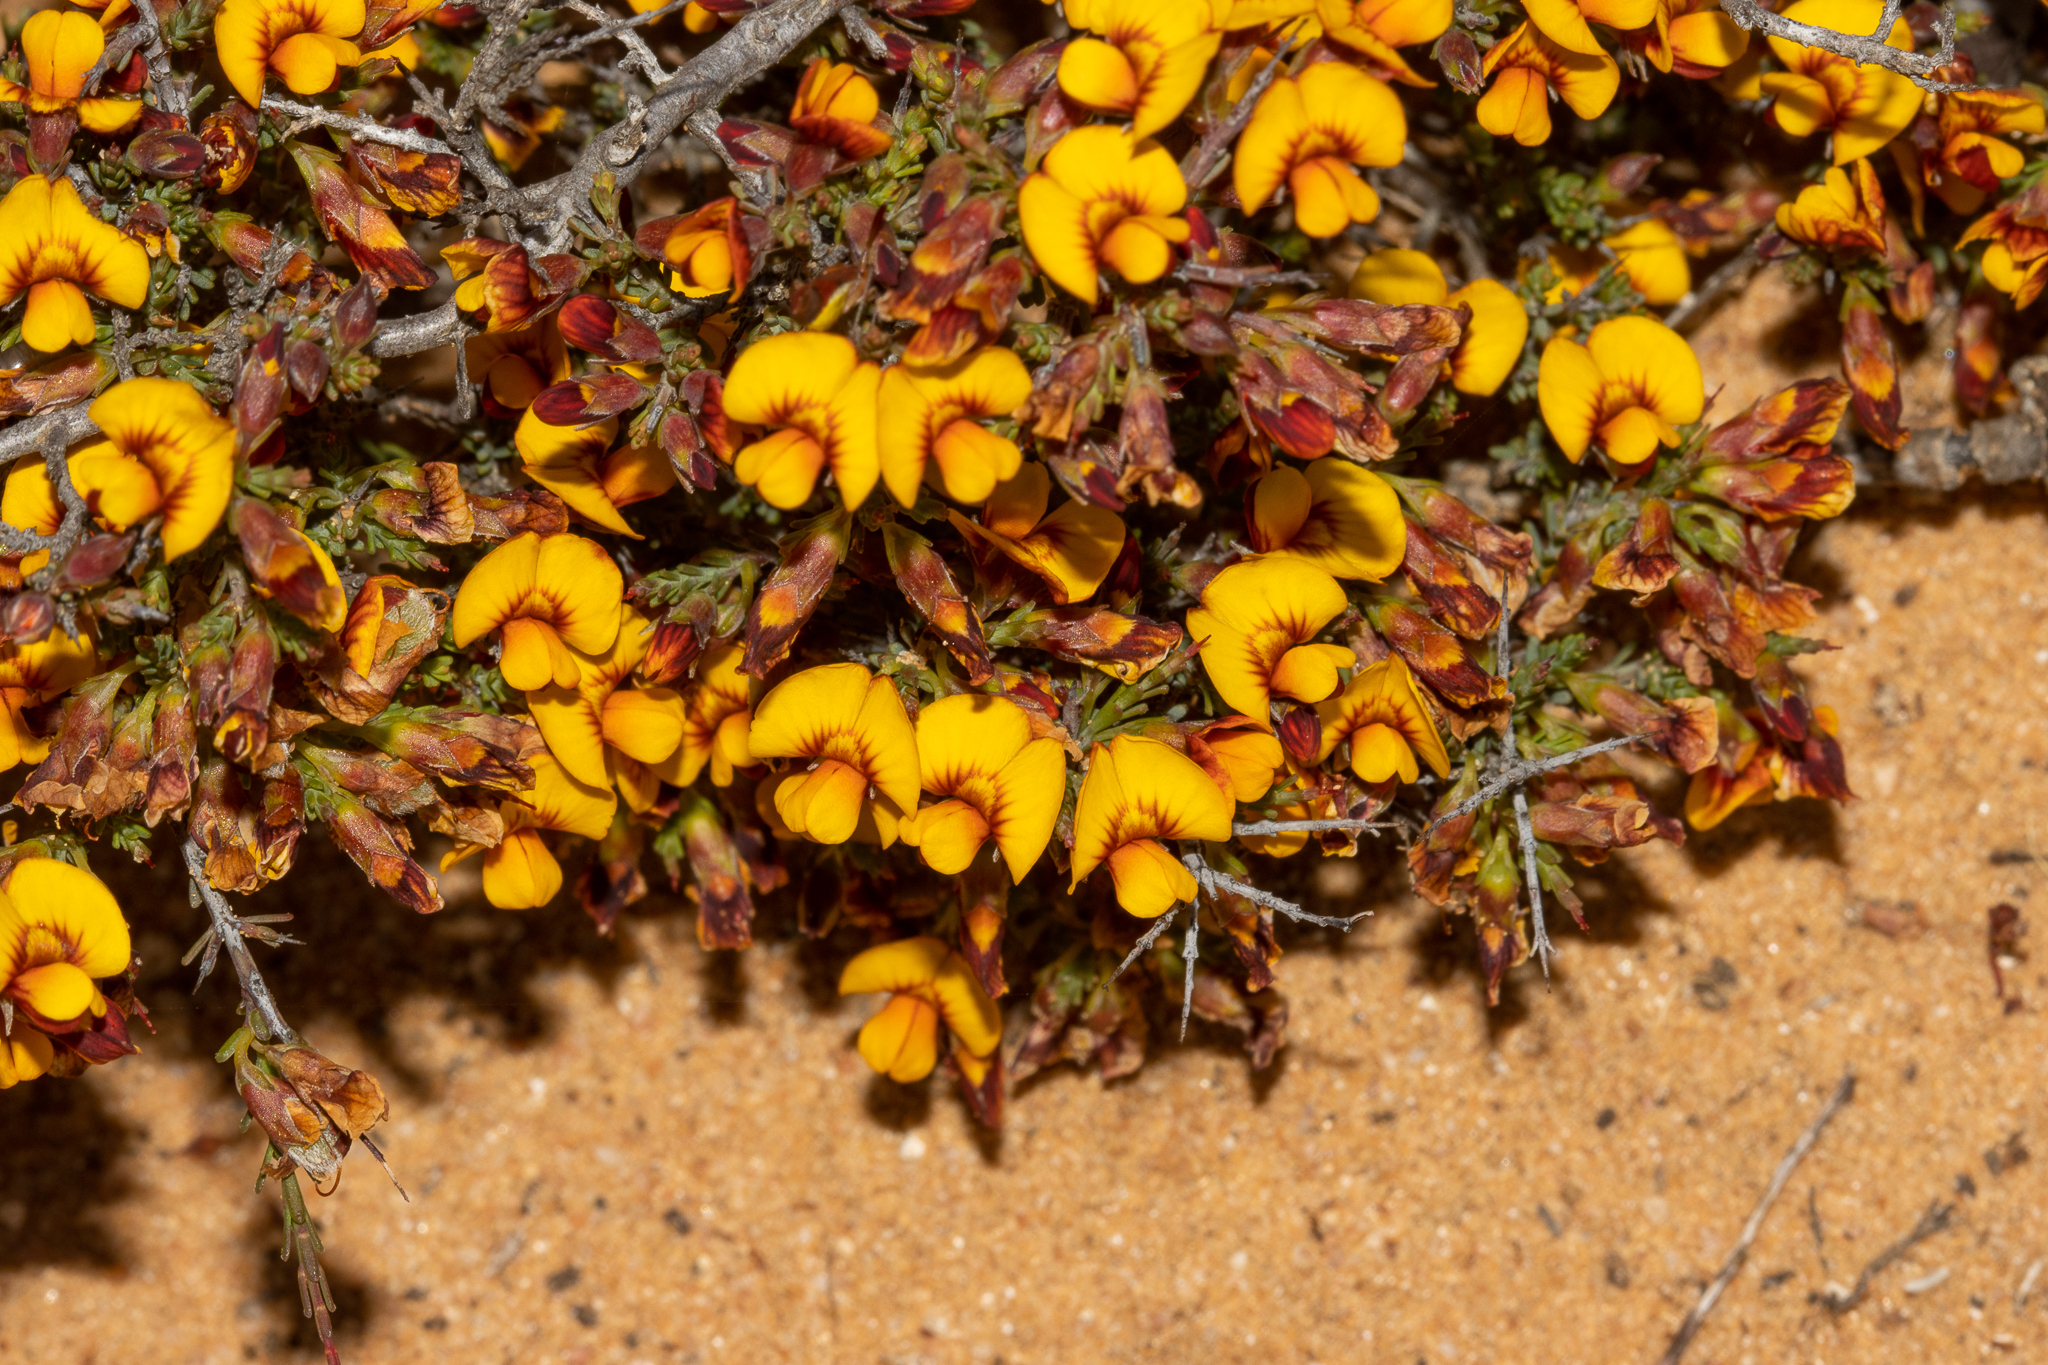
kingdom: Plantae
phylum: Tracheophyta
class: Magnoliopsida
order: Fabales
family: Fabaceae
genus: Eutaxia
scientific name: Eutaxia microphylla
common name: Mallee bush-pea
